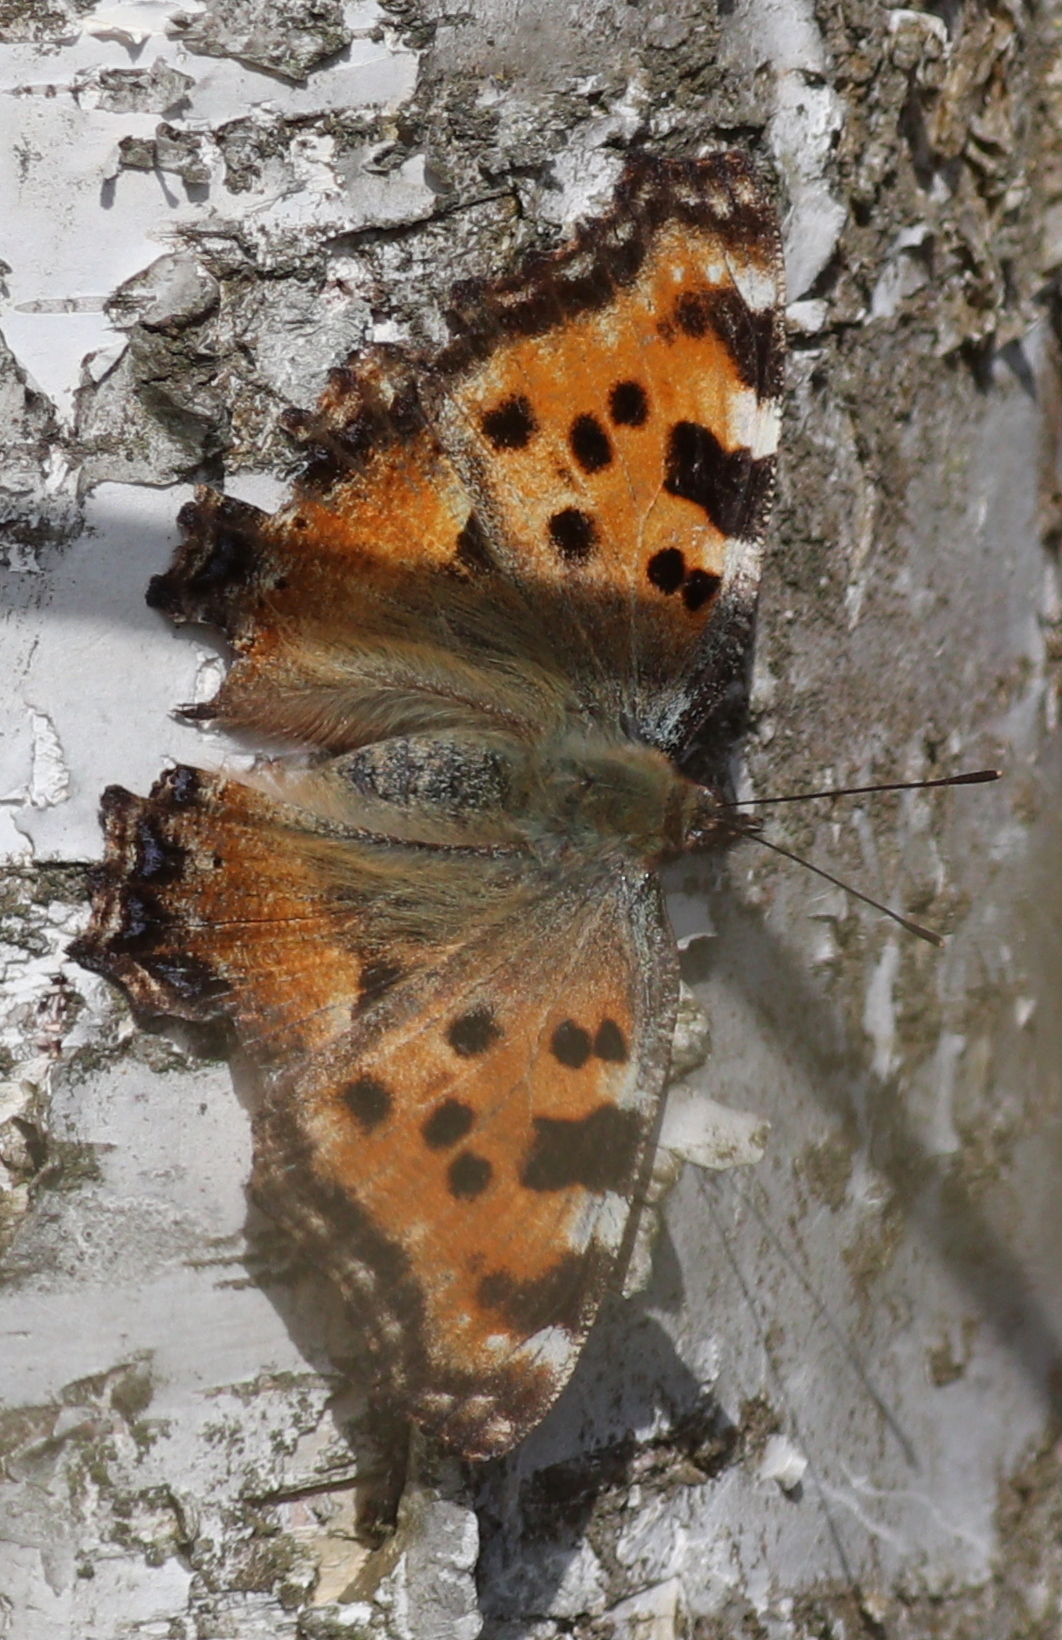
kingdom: Animalia
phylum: Arthropoda
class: Insecta
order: Lepidoptera
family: Nymphalidae
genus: Nymphalis
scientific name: Nymphalis polychloros
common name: Large tortoiseshell
